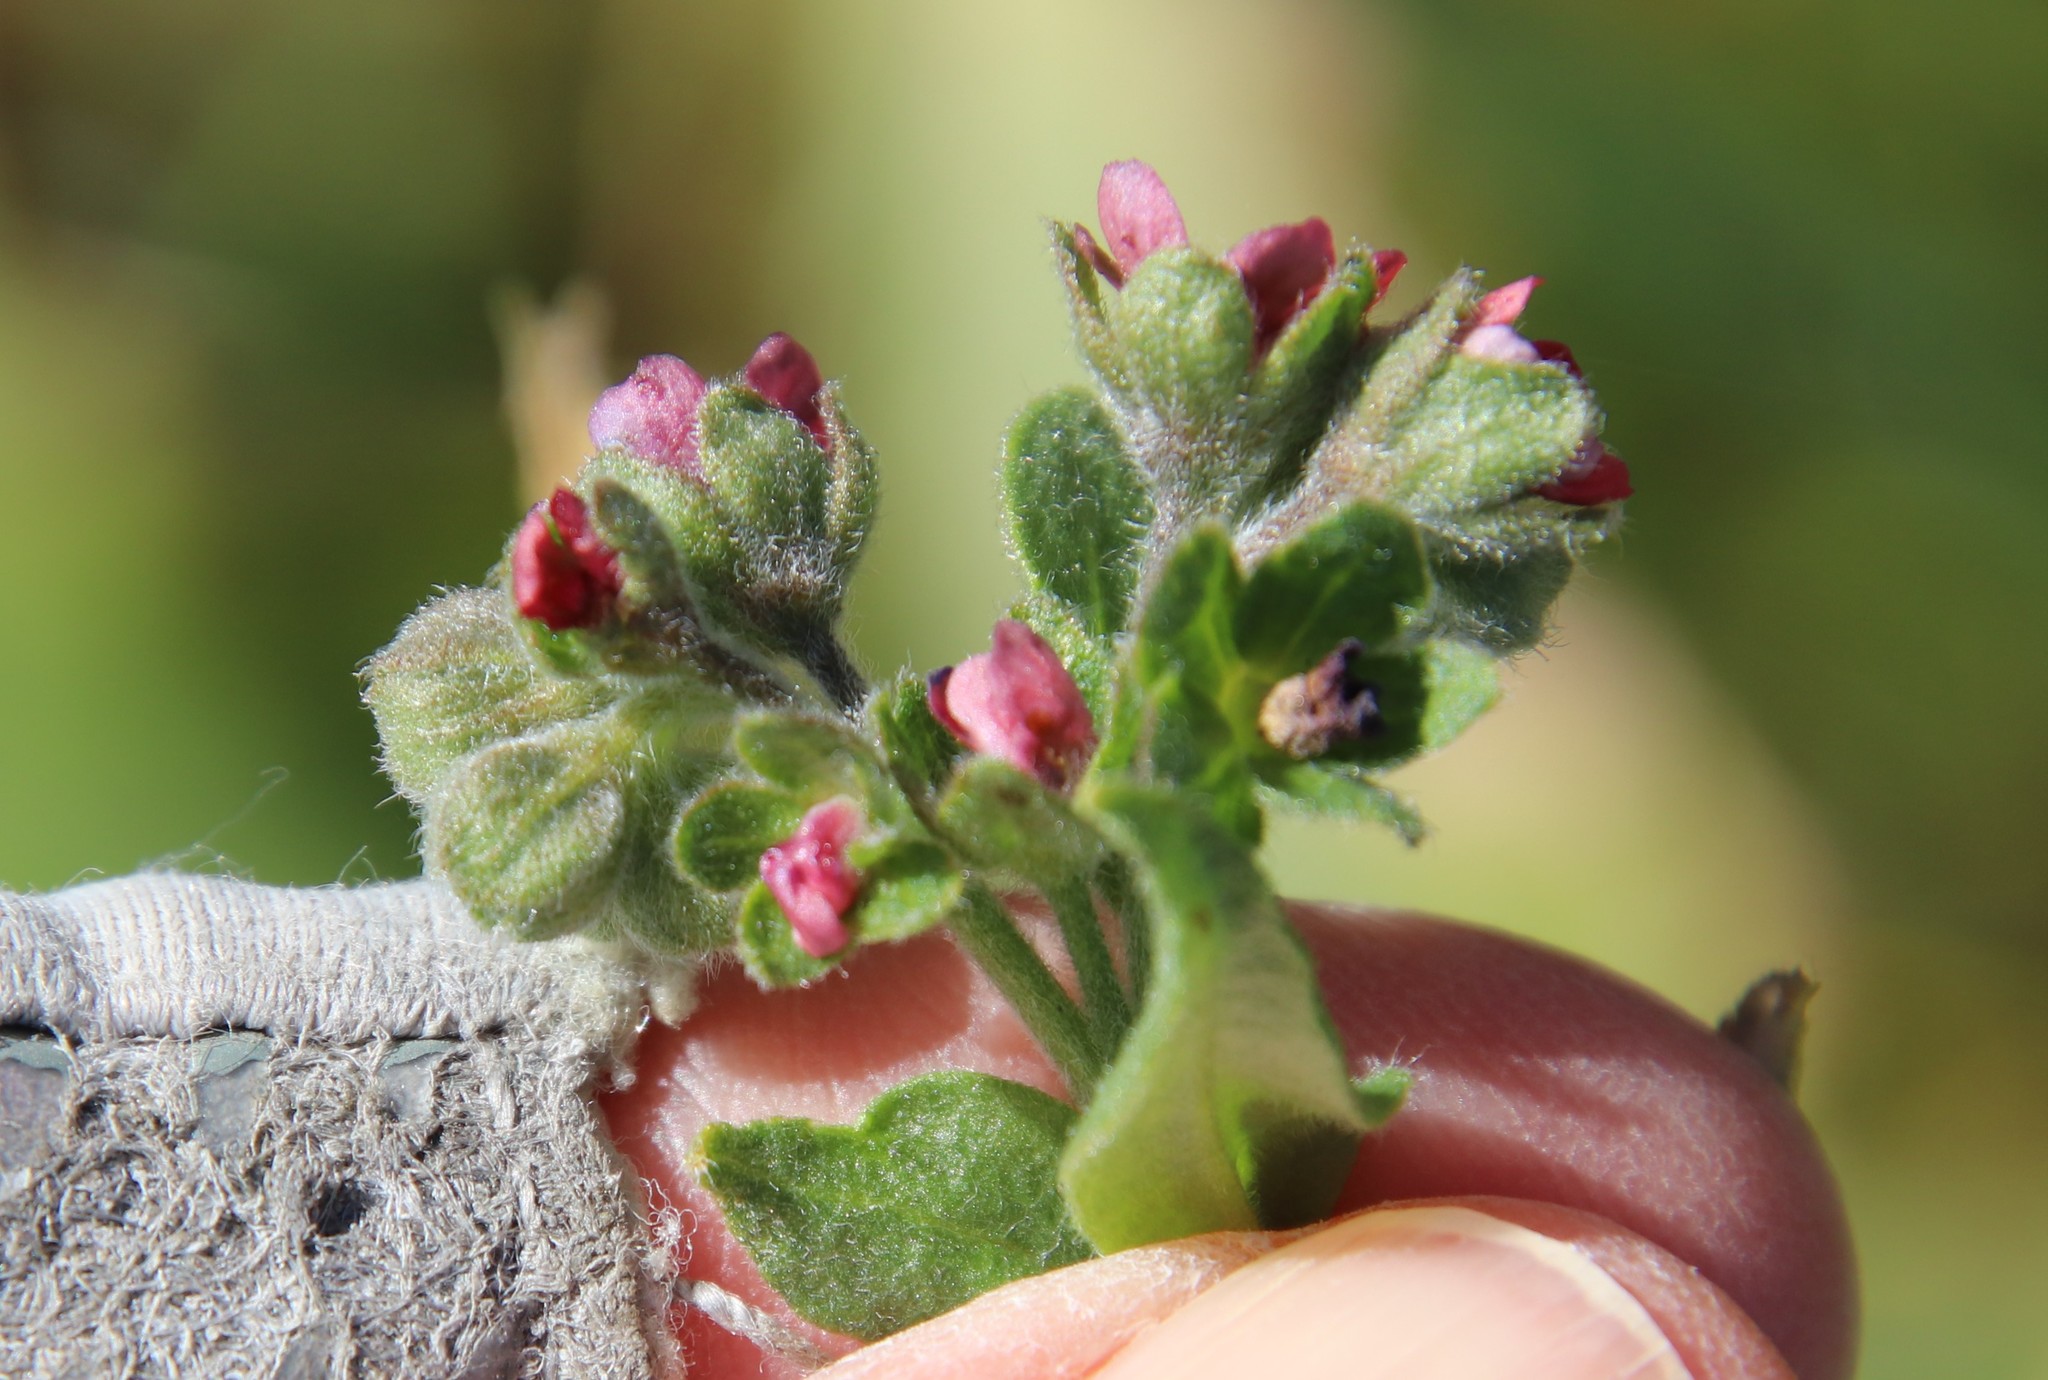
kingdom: Plantae
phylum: Tracheophyta
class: Magnoliopsida
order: Boraginales
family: Boraginaceae
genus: Cynoglossum
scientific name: Cynoglossum officinale
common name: Hound's-tongue
